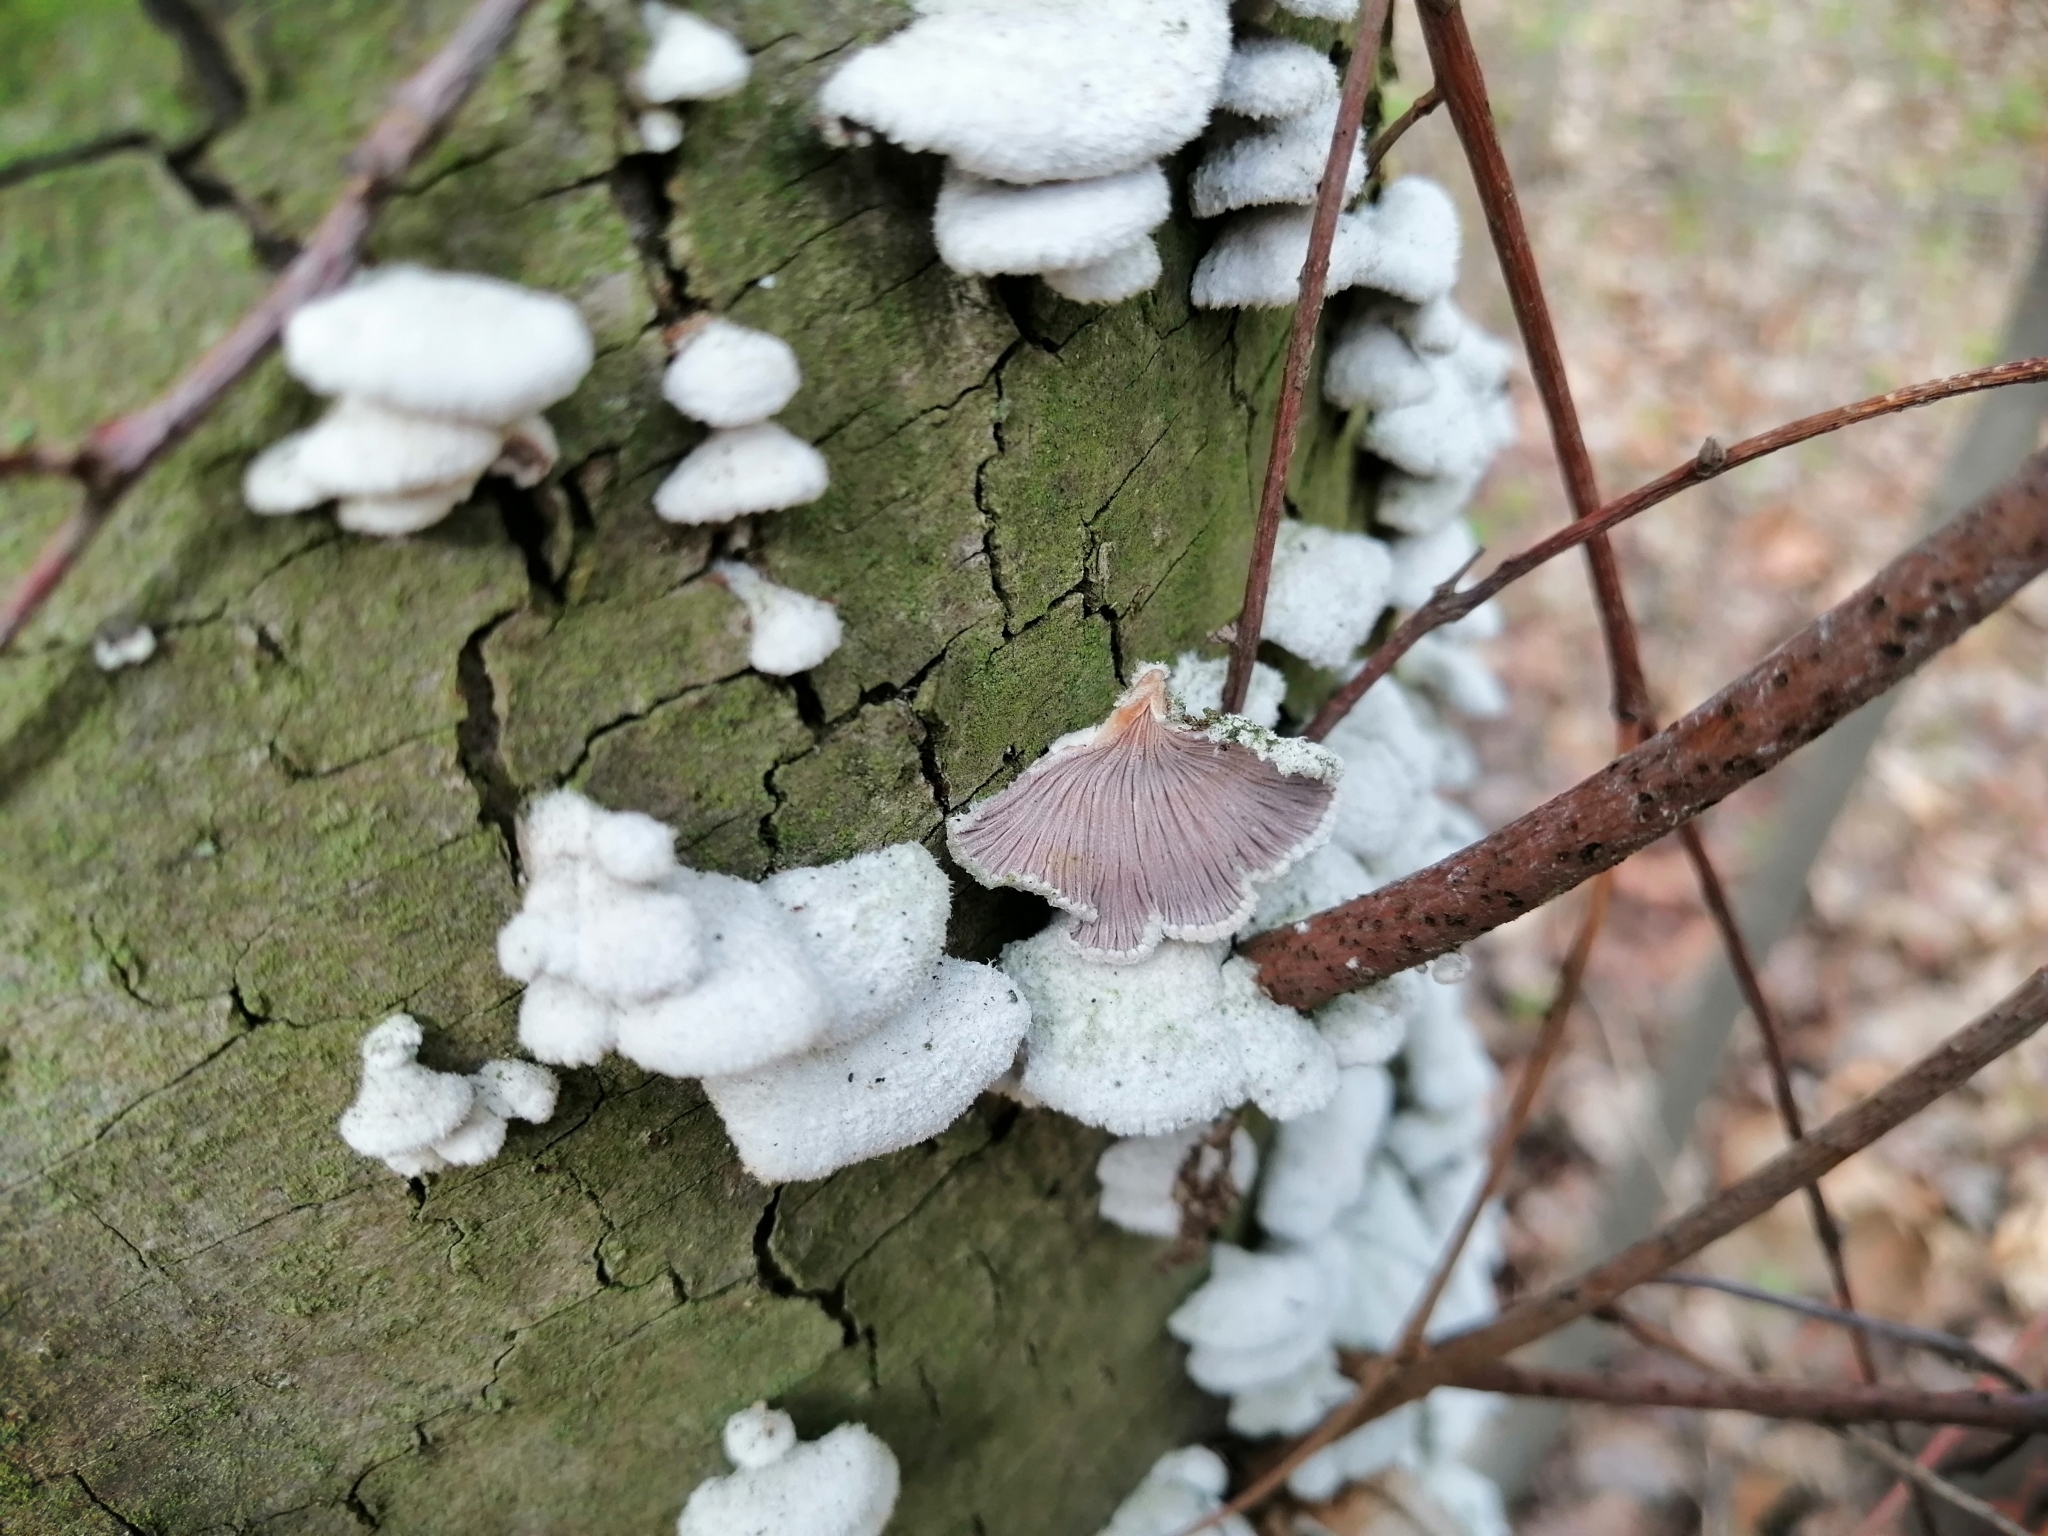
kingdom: Fungi
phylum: Basidiomycota
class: Agaricomycetes
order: Agaricales
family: Schizophyllaceae
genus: Schizophyllum
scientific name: Schizophyllum commune
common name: Common porecrust
